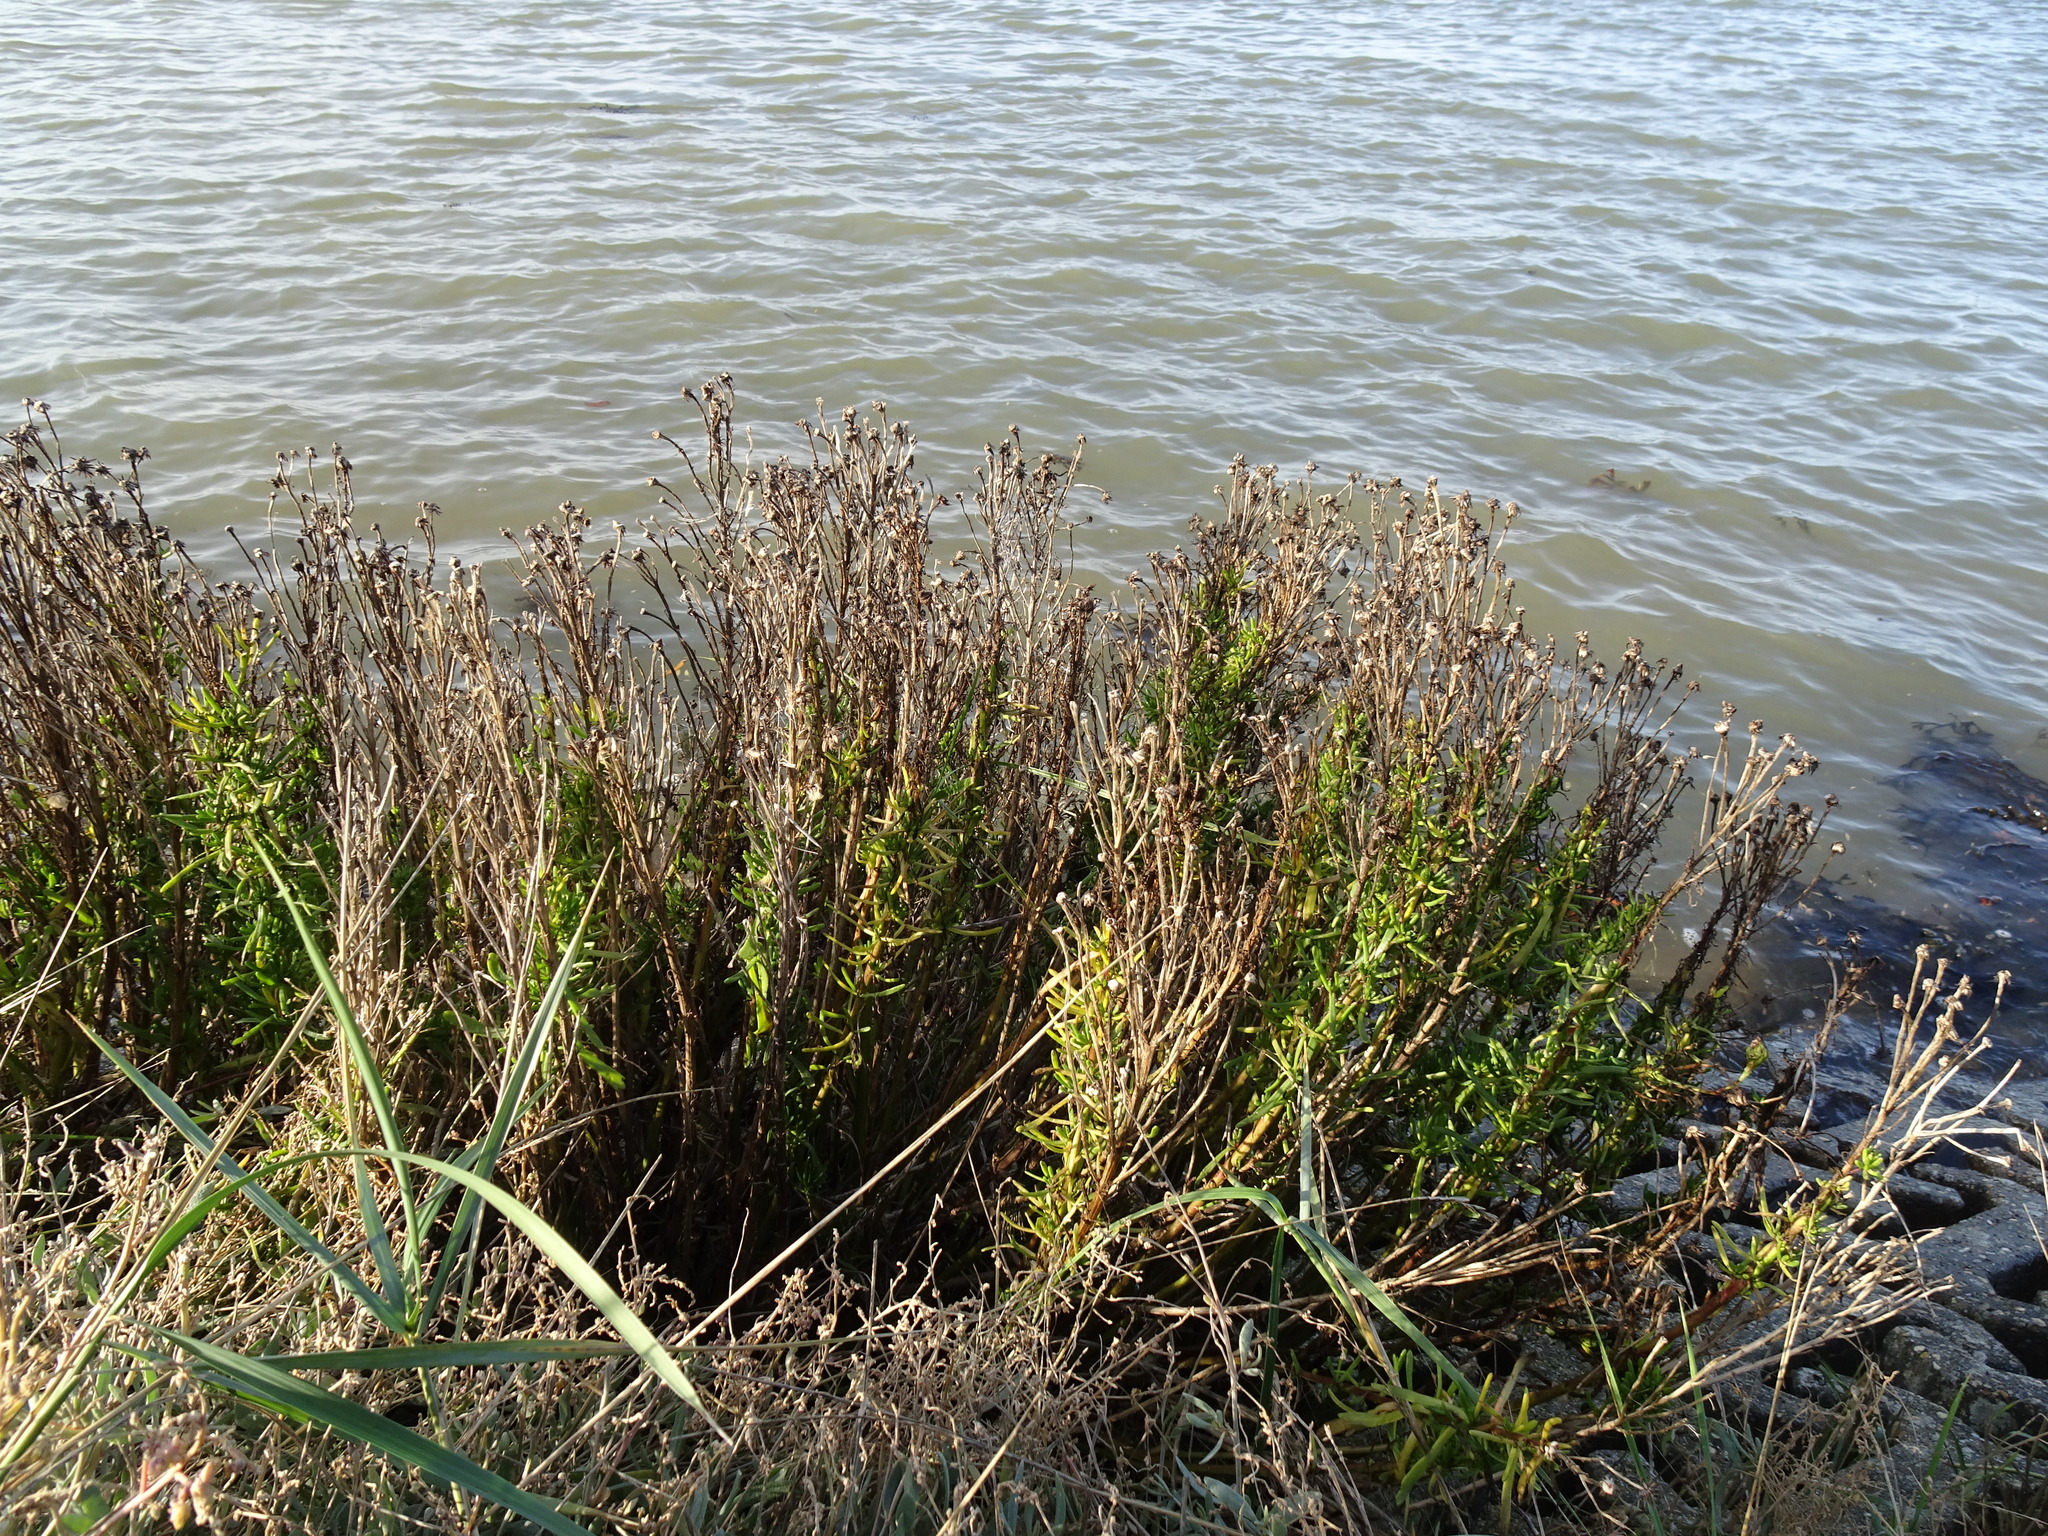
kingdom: Plantae
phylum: Tracheophyta
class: Magnoliopsida
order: Asterales
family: Asteraceae
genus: Limbarda
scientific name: Limbarda crithmoides
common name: Golden samphire
